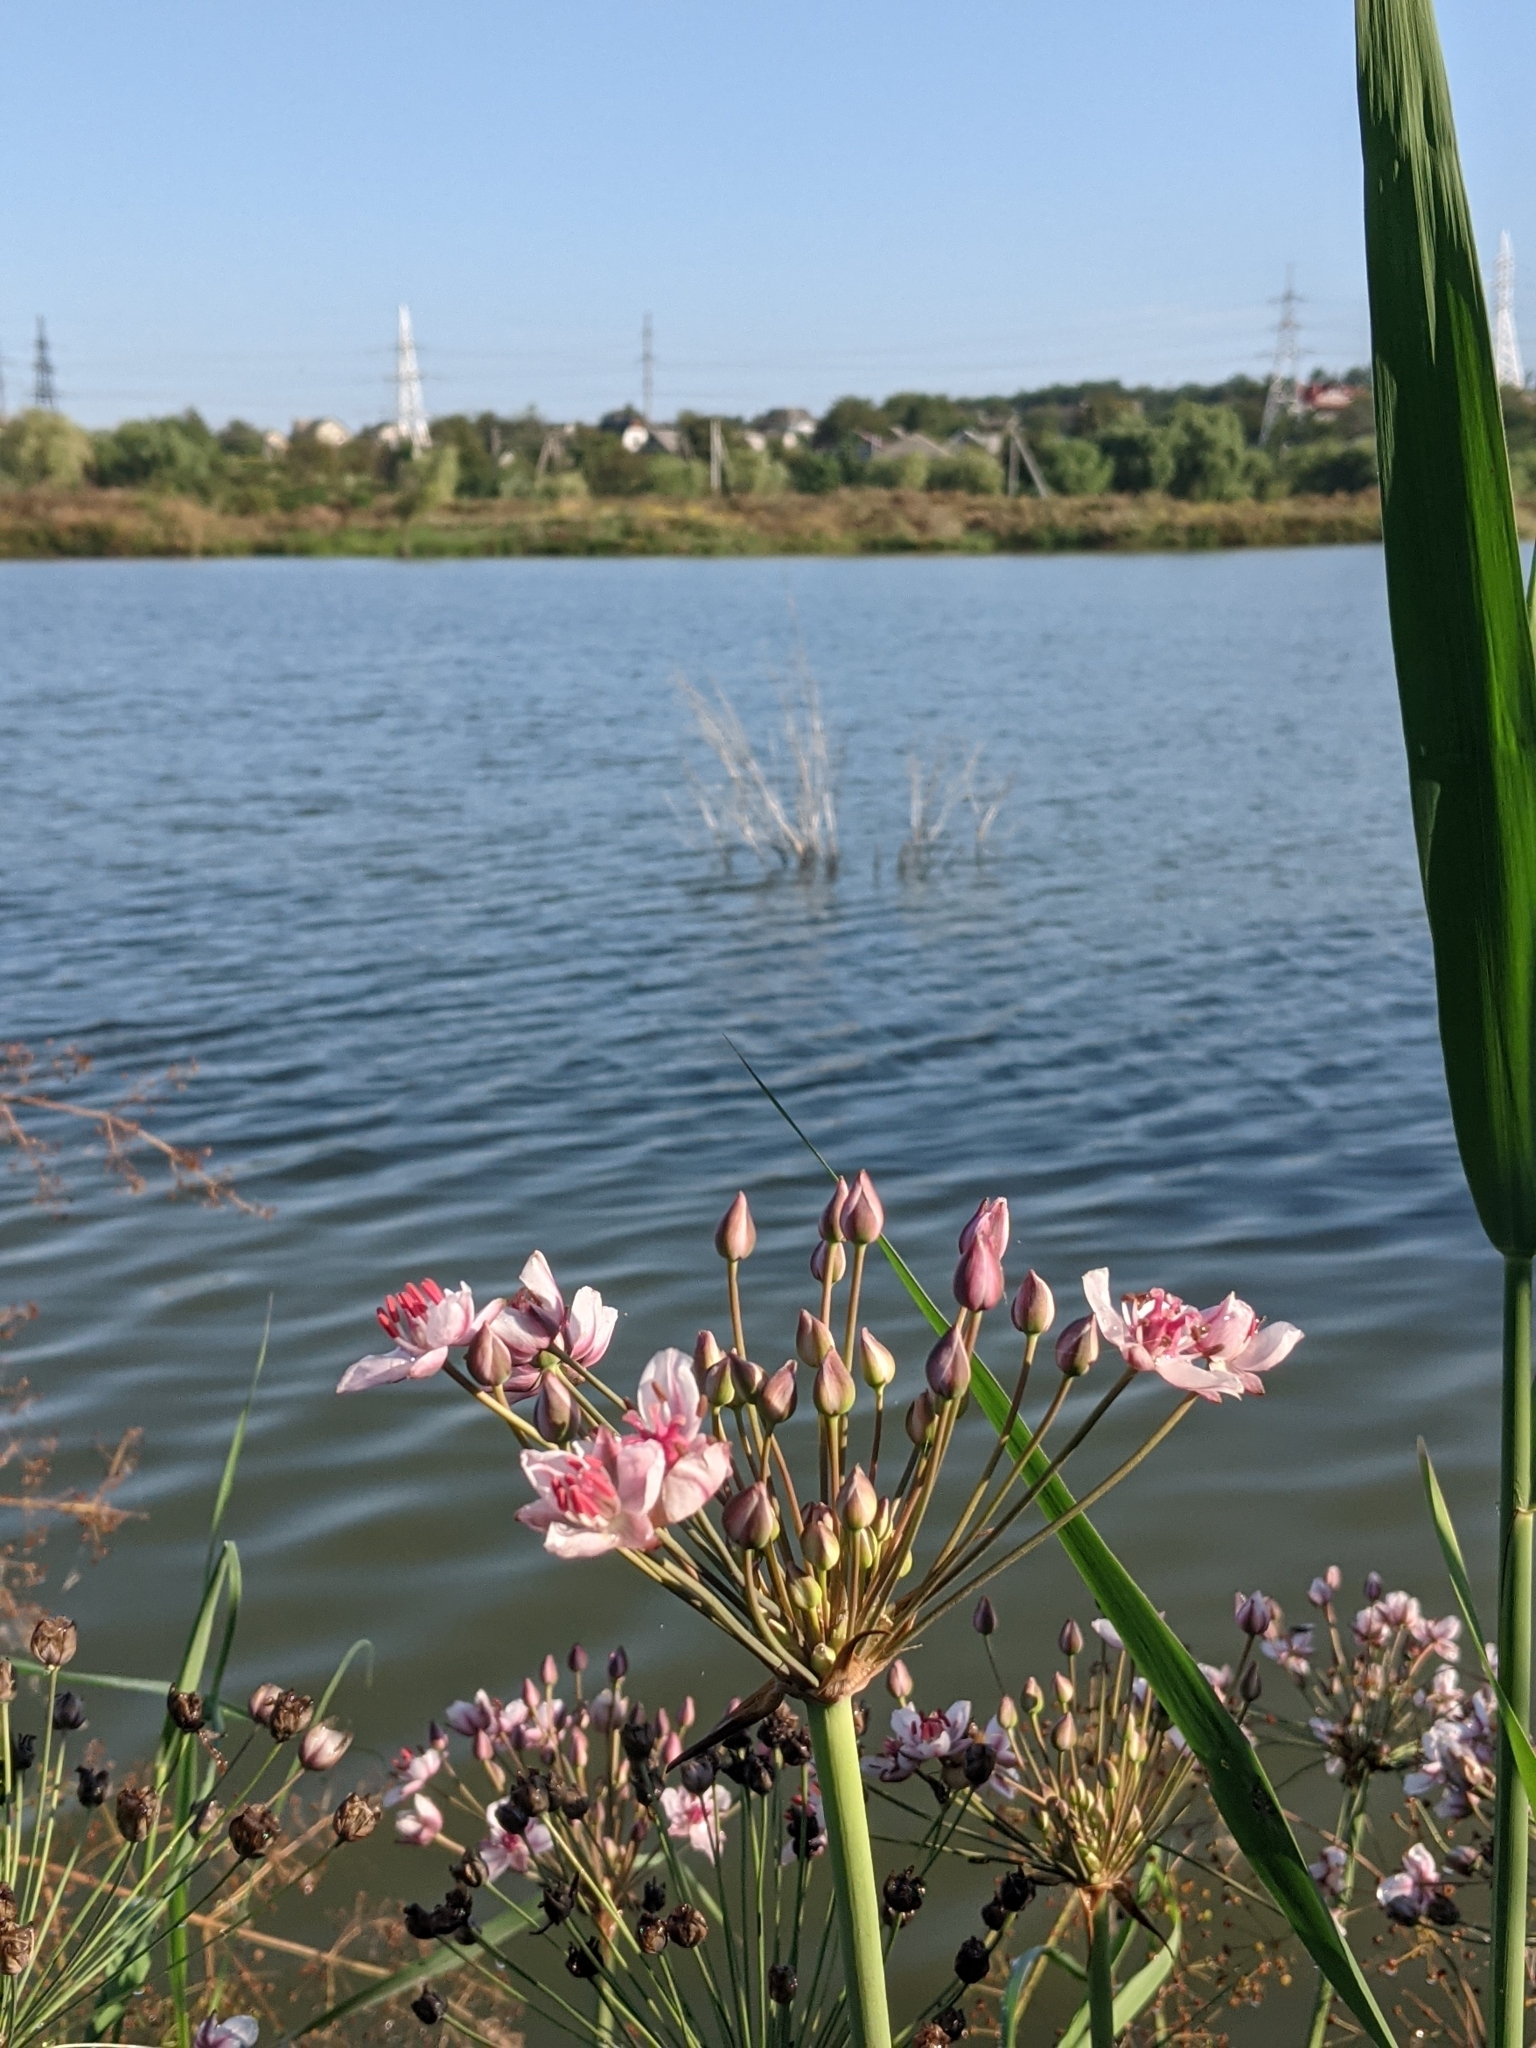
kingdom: Plantae
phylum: Tracheophyta
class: Liliopsida
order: Alismatales
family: Butomaceae
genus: Butomus
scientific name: Butomus umbellatus
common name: Flowering-rush
